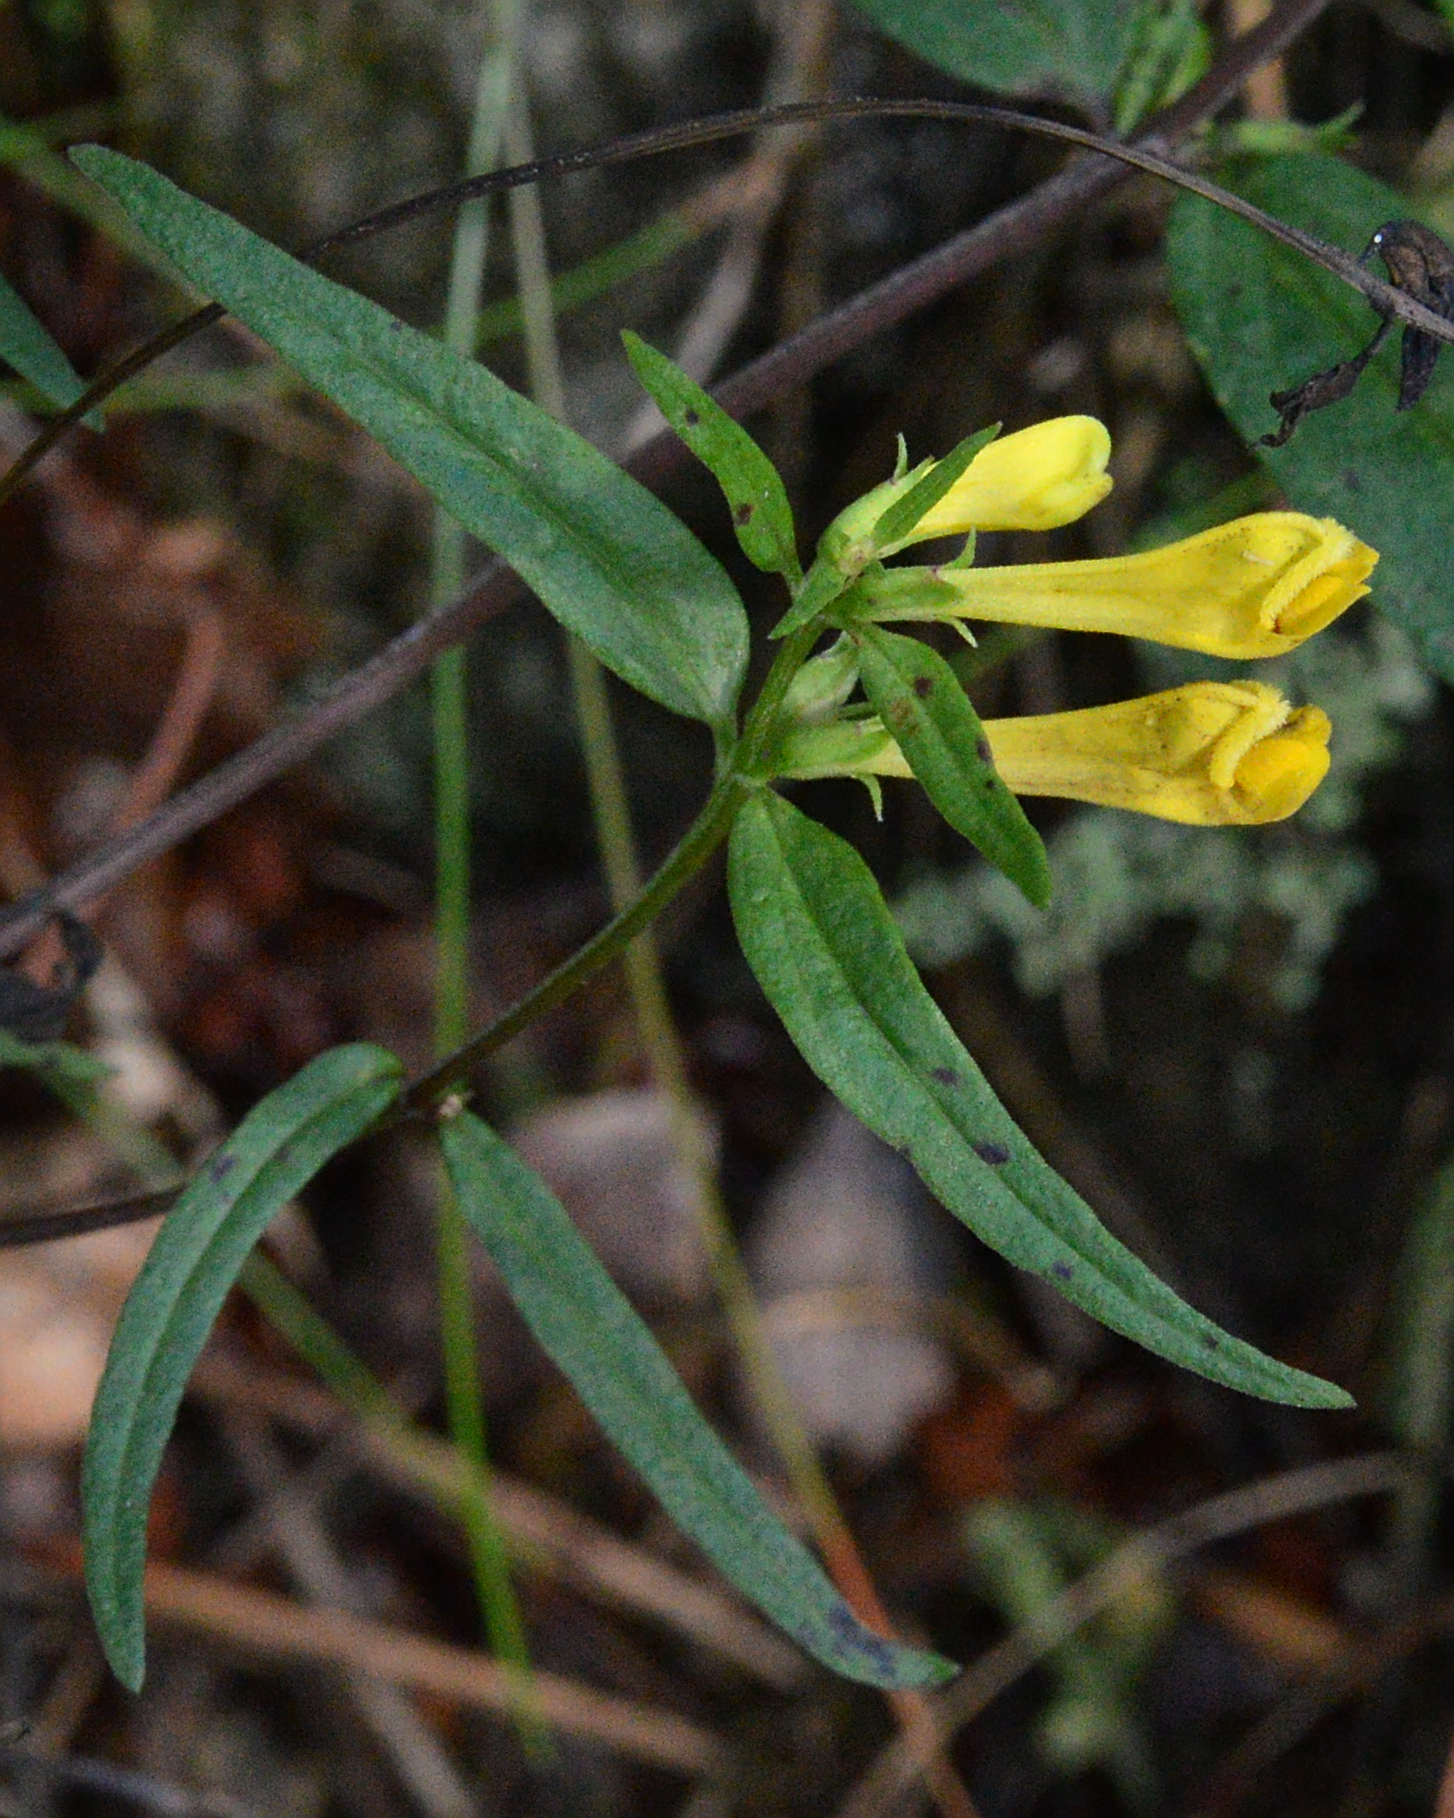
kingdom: Plantae
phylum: Tracheophyta
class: Magnoliopsida
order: Lamiales
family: Orobanchaceae
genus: Melampyrum
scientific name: Melampyrum pratense
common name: Common cow-wheat
